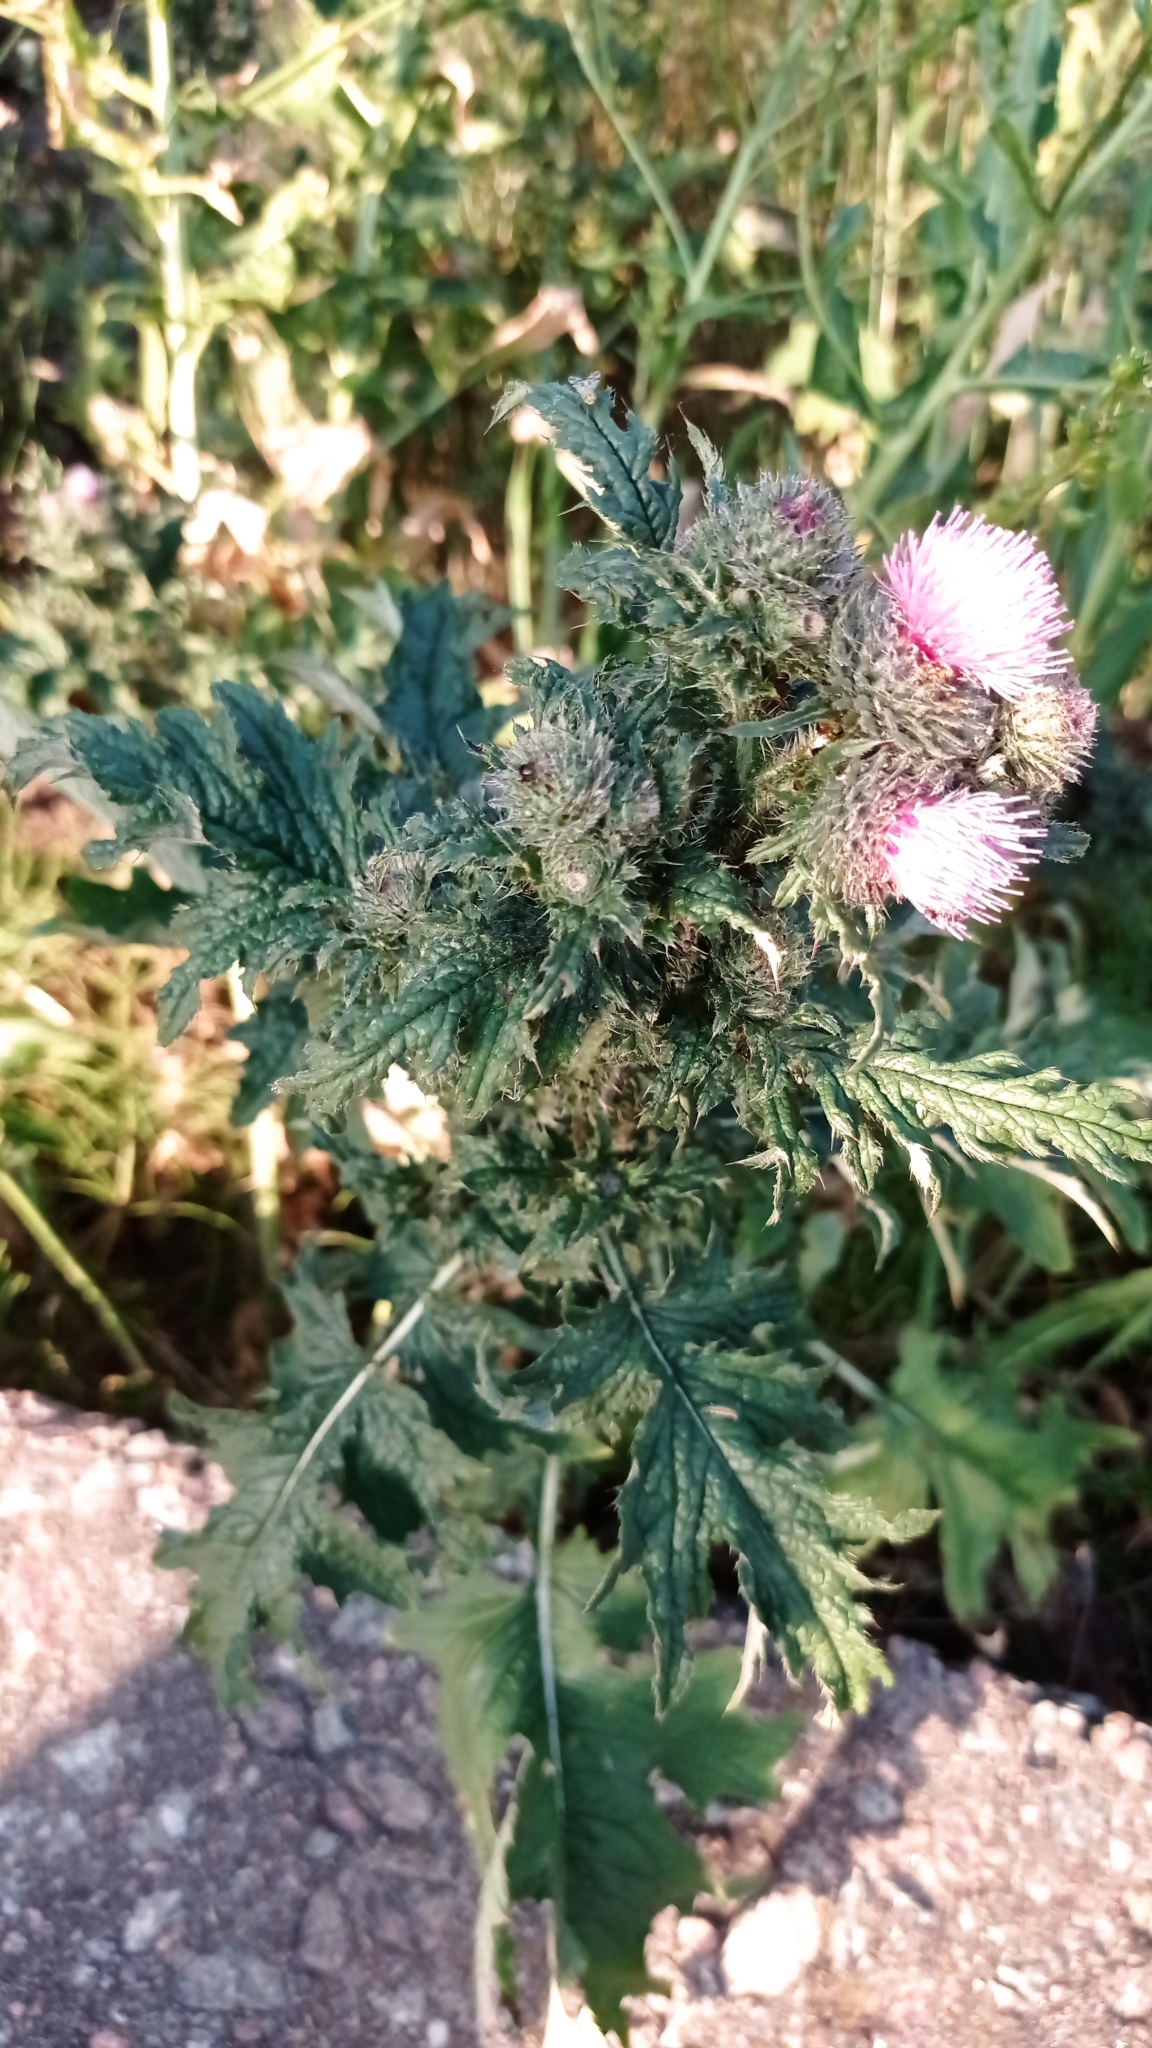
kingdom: Plantae
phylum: Tracheophyta
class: Magnoliopsida
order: Asterales
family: Asteraceae
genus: Carduus
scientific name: Carduus crispus
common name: Welted thistle
